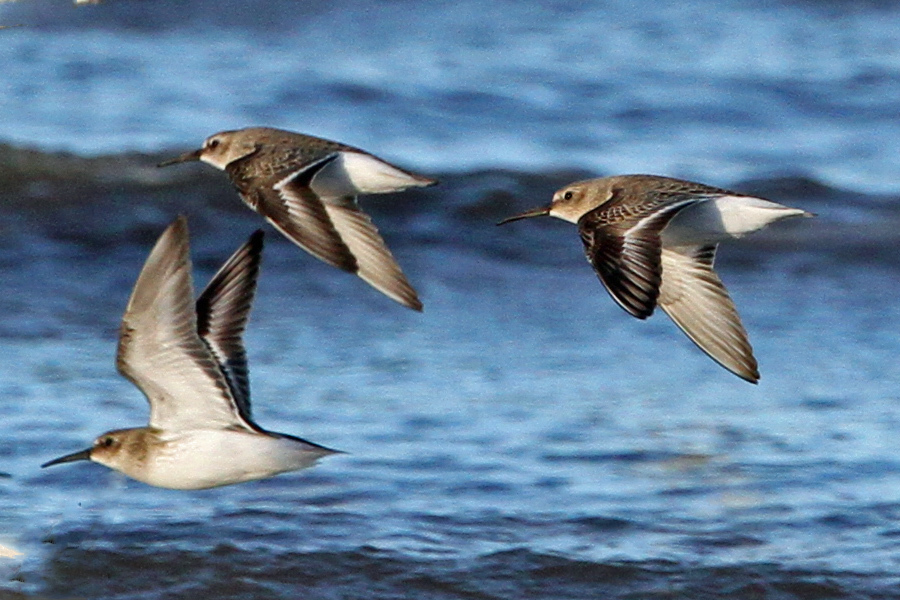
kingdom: Animalia
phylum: Chordata
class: Aves
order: Charadriiformes
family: Scolopacidae
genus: Calidris
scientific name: Calidris alpina
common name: Dunlin
